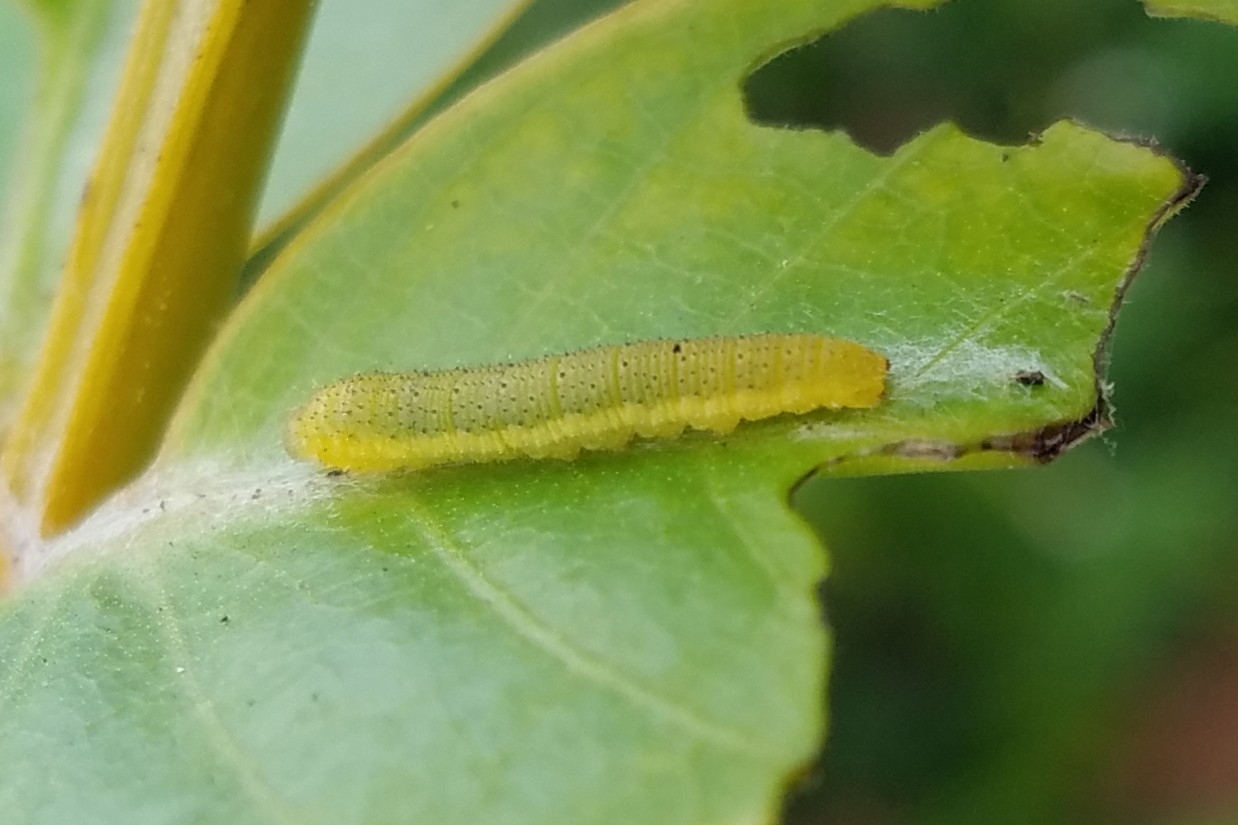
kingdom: Animalia
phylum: Arthropoda
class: Insecta
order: Lepidoptera
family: Pieridae
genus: Phoebis
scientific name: Phoebis sennae
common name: Cloudless sulphur
